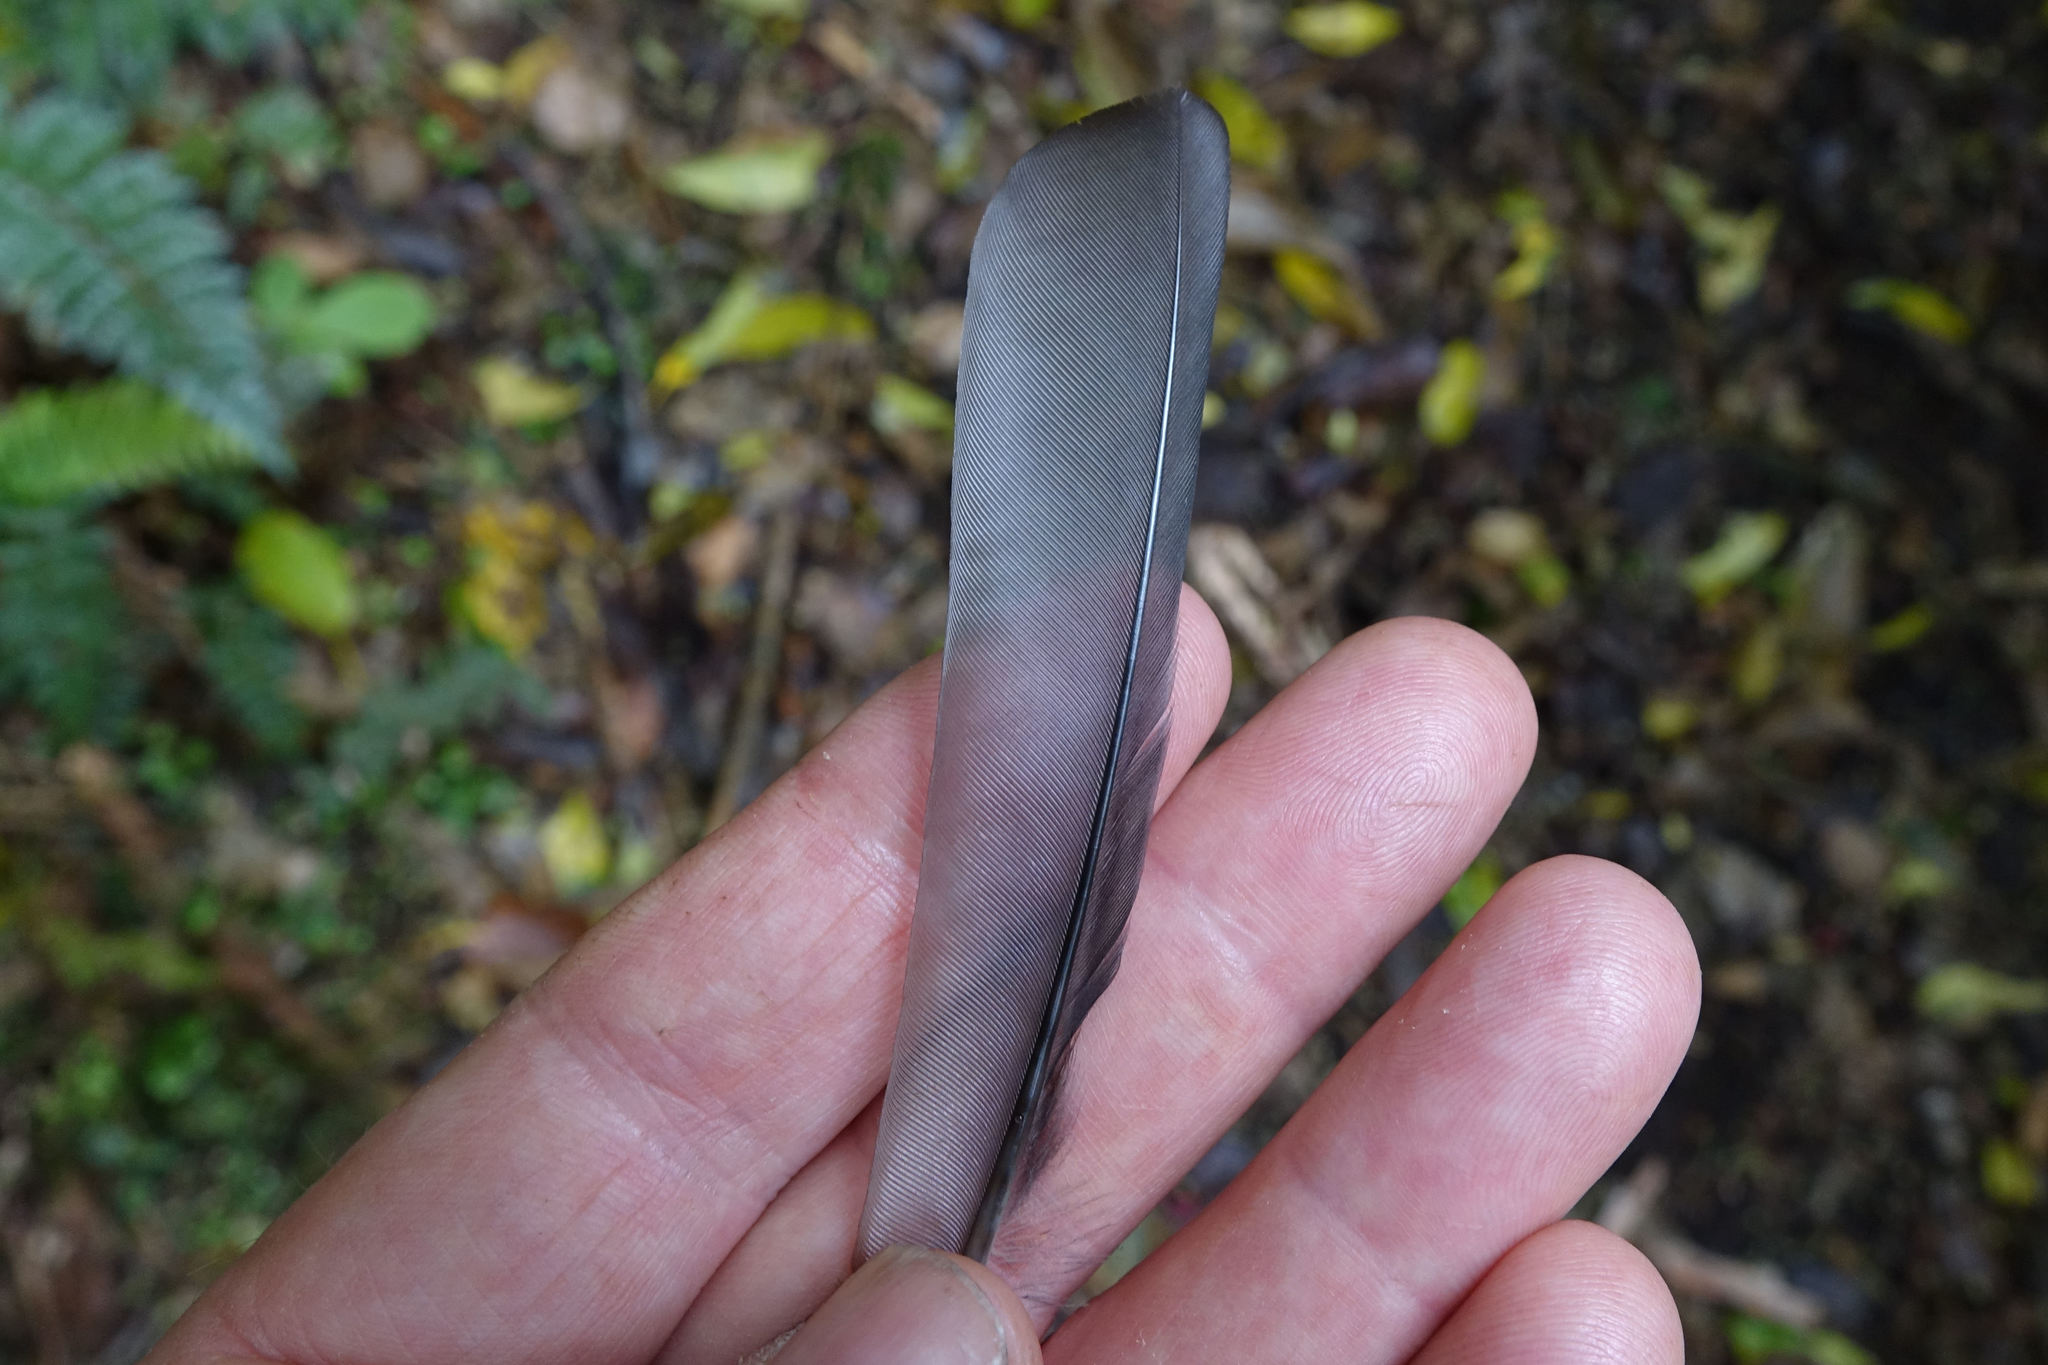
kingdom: Animalia
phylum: Chordata
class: Aves
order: Passeriformes
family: Turdidae
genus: Turdus
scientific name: Turdus merula
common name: Common blackbird
